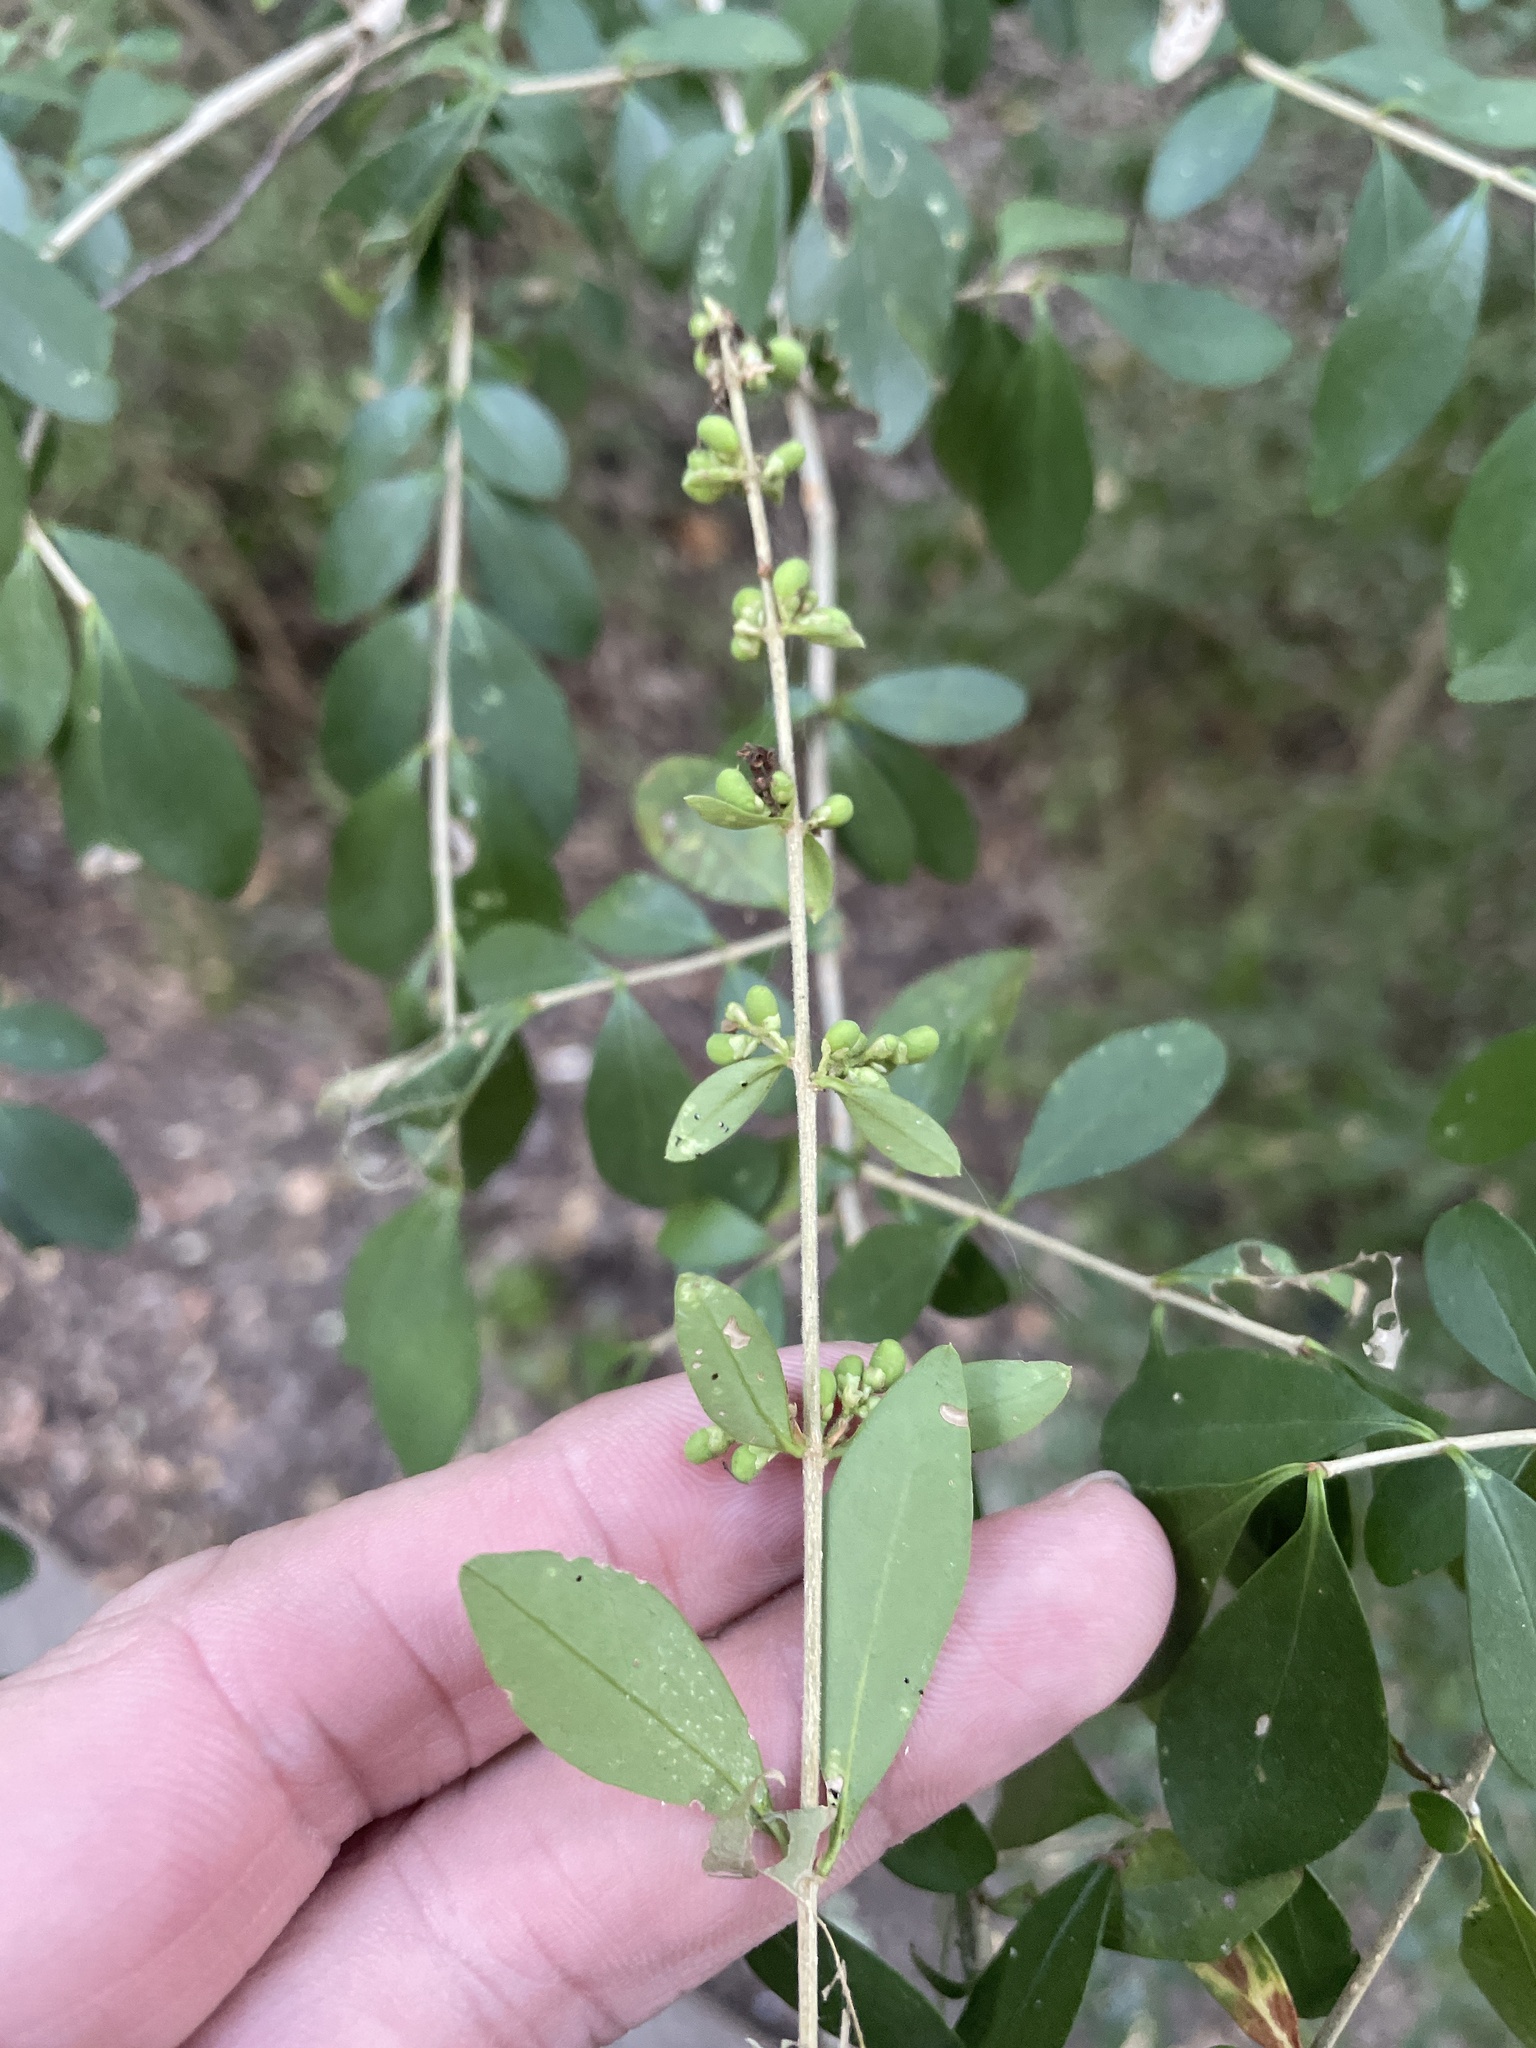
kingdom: Plantae
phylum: Tracheophyta
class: Magnoliopsida
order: Lamiales
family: Oleaceae
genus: Ligustrum
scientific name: Ligustrum quihoui
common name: Waxyleaf privet
